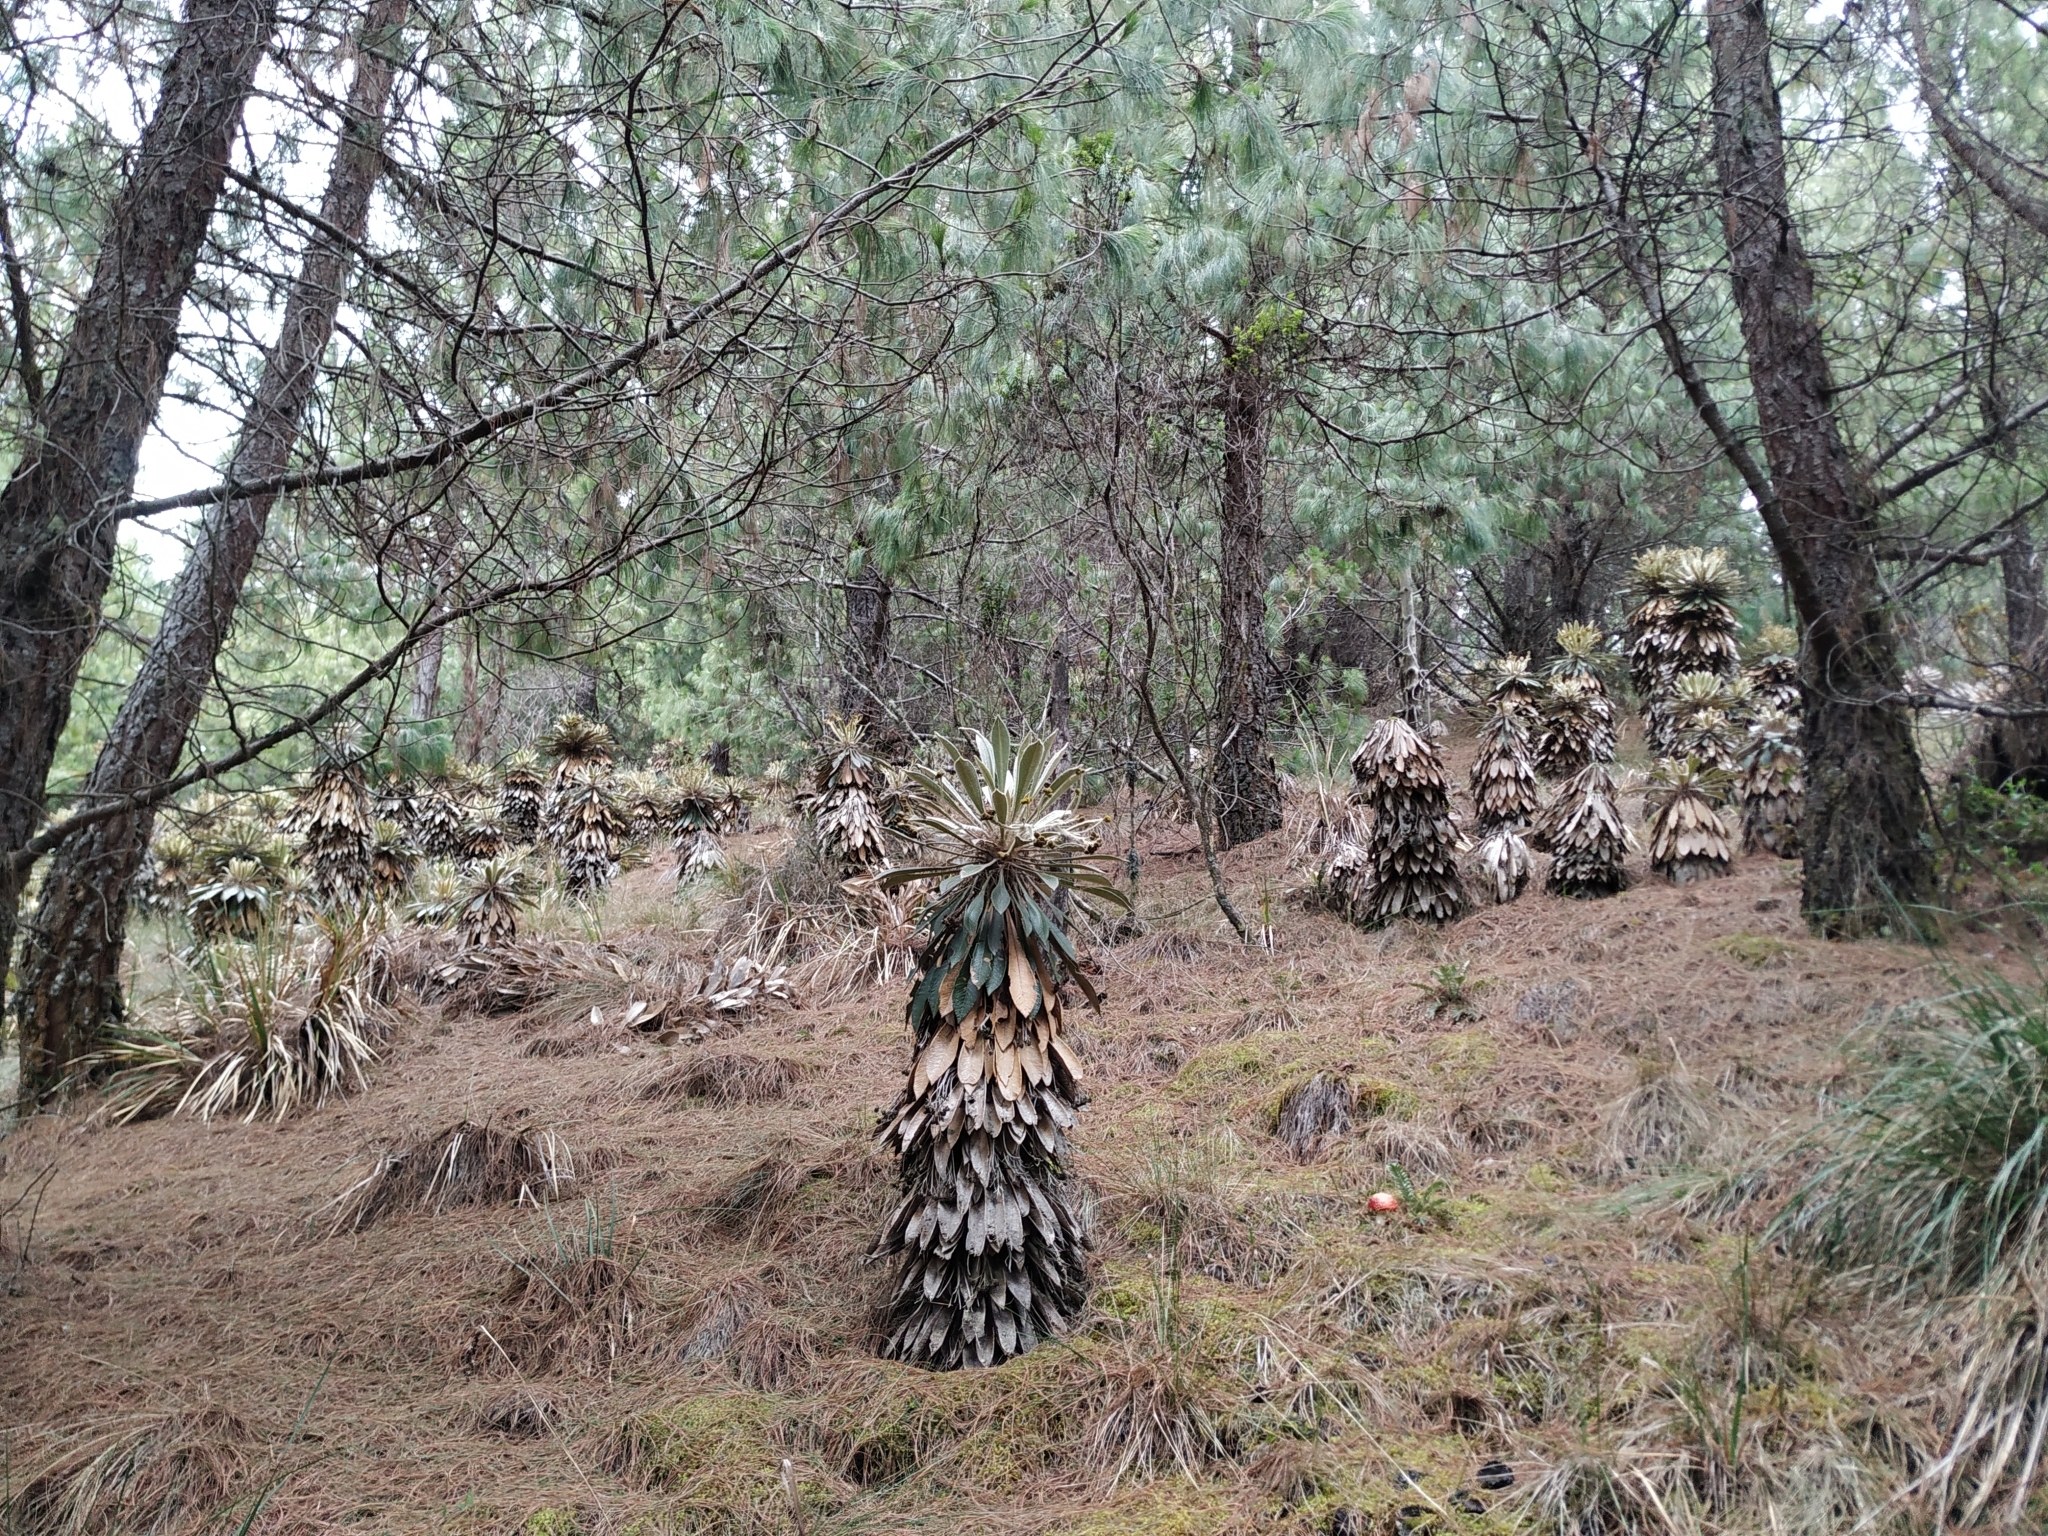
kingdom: Plantae
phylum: Tracheophyta
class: Magnoliopsida
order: Asterales
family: Asteraceae
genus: Espeletia
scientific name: Espeletia guacharaca
